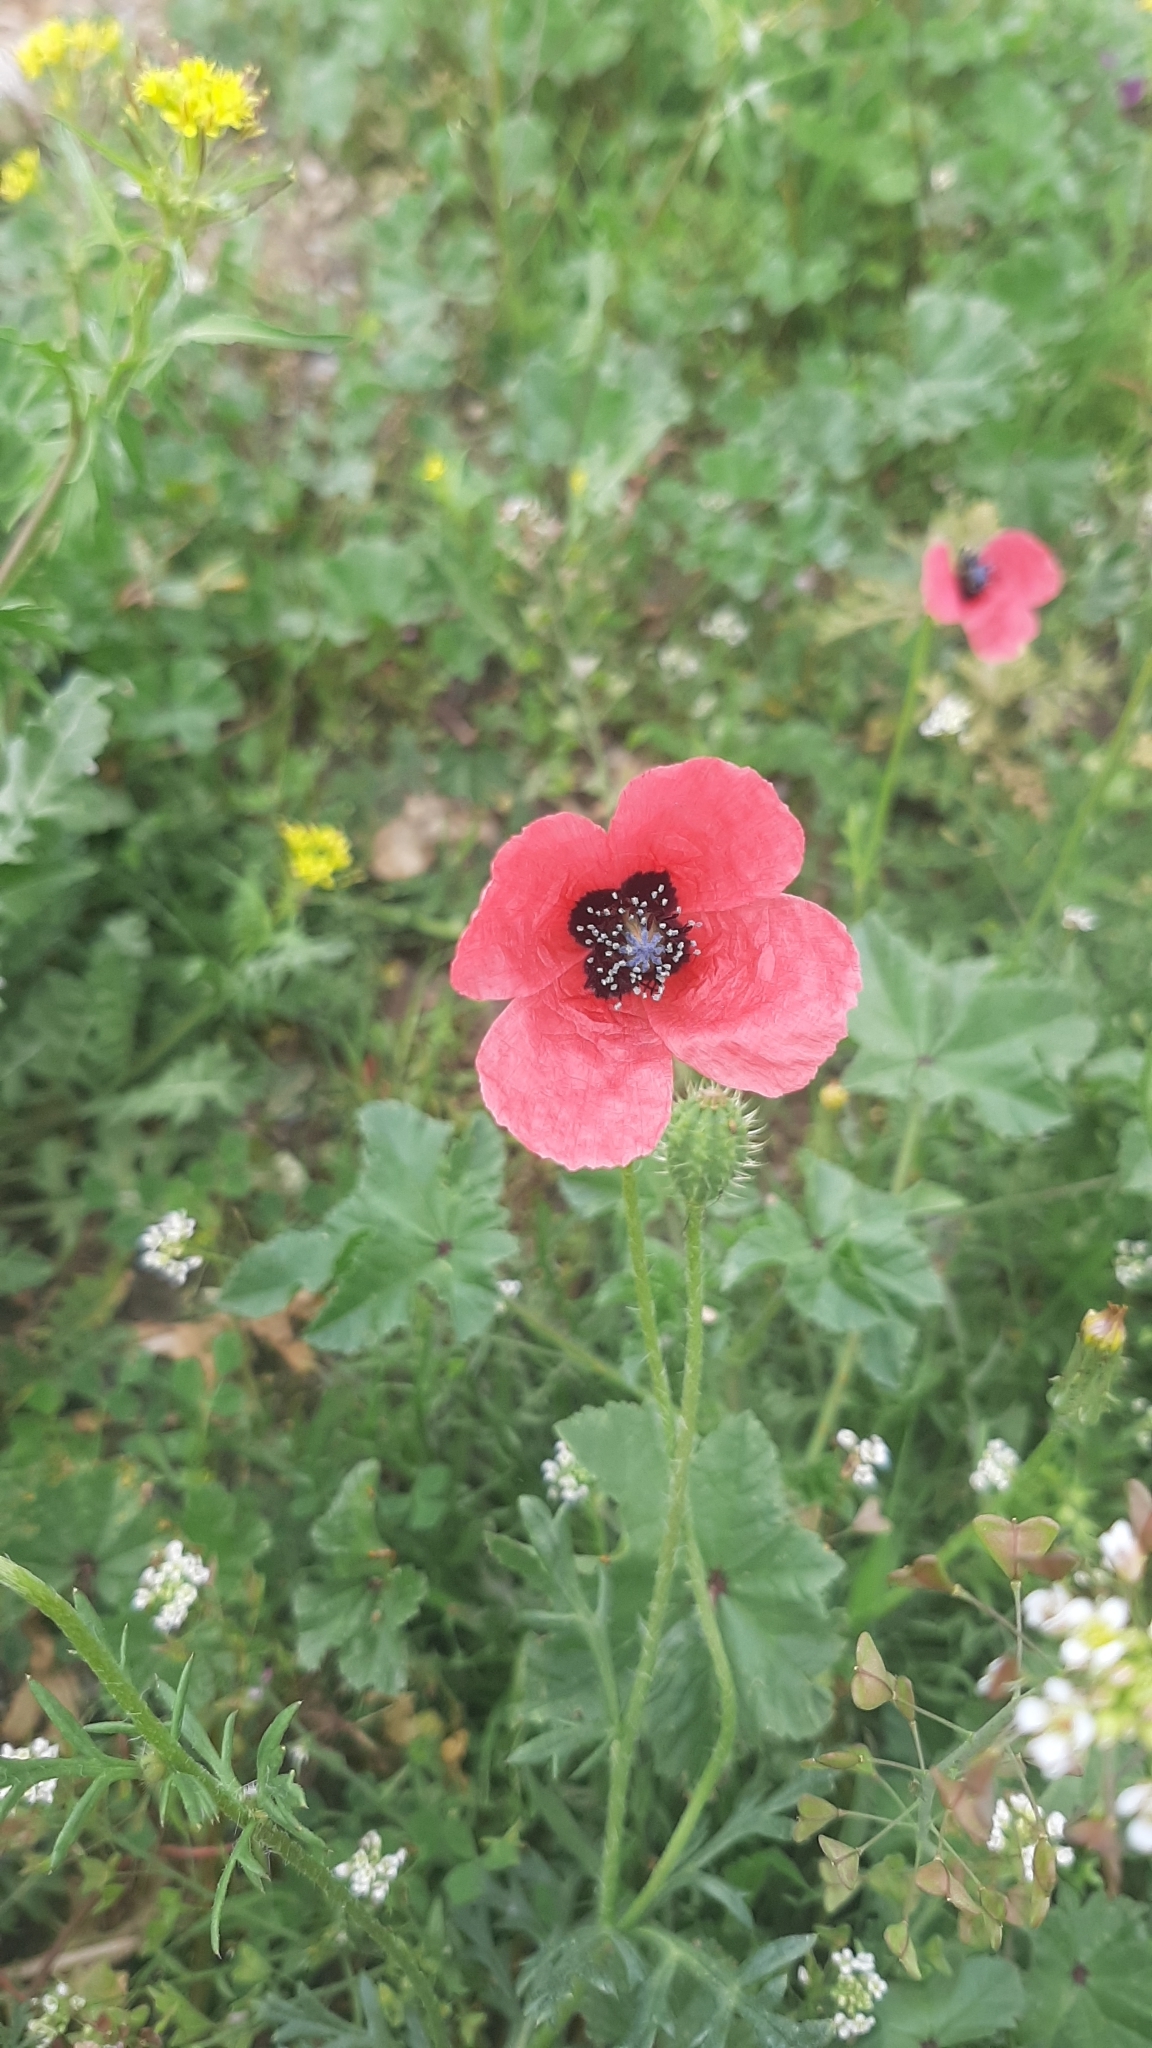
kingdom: Plantae
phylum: Tracheophyta
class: Magnoliopsida
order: Ranunculales
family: Papaveraceae
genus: Roemeria
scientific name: Roemeria hispida
